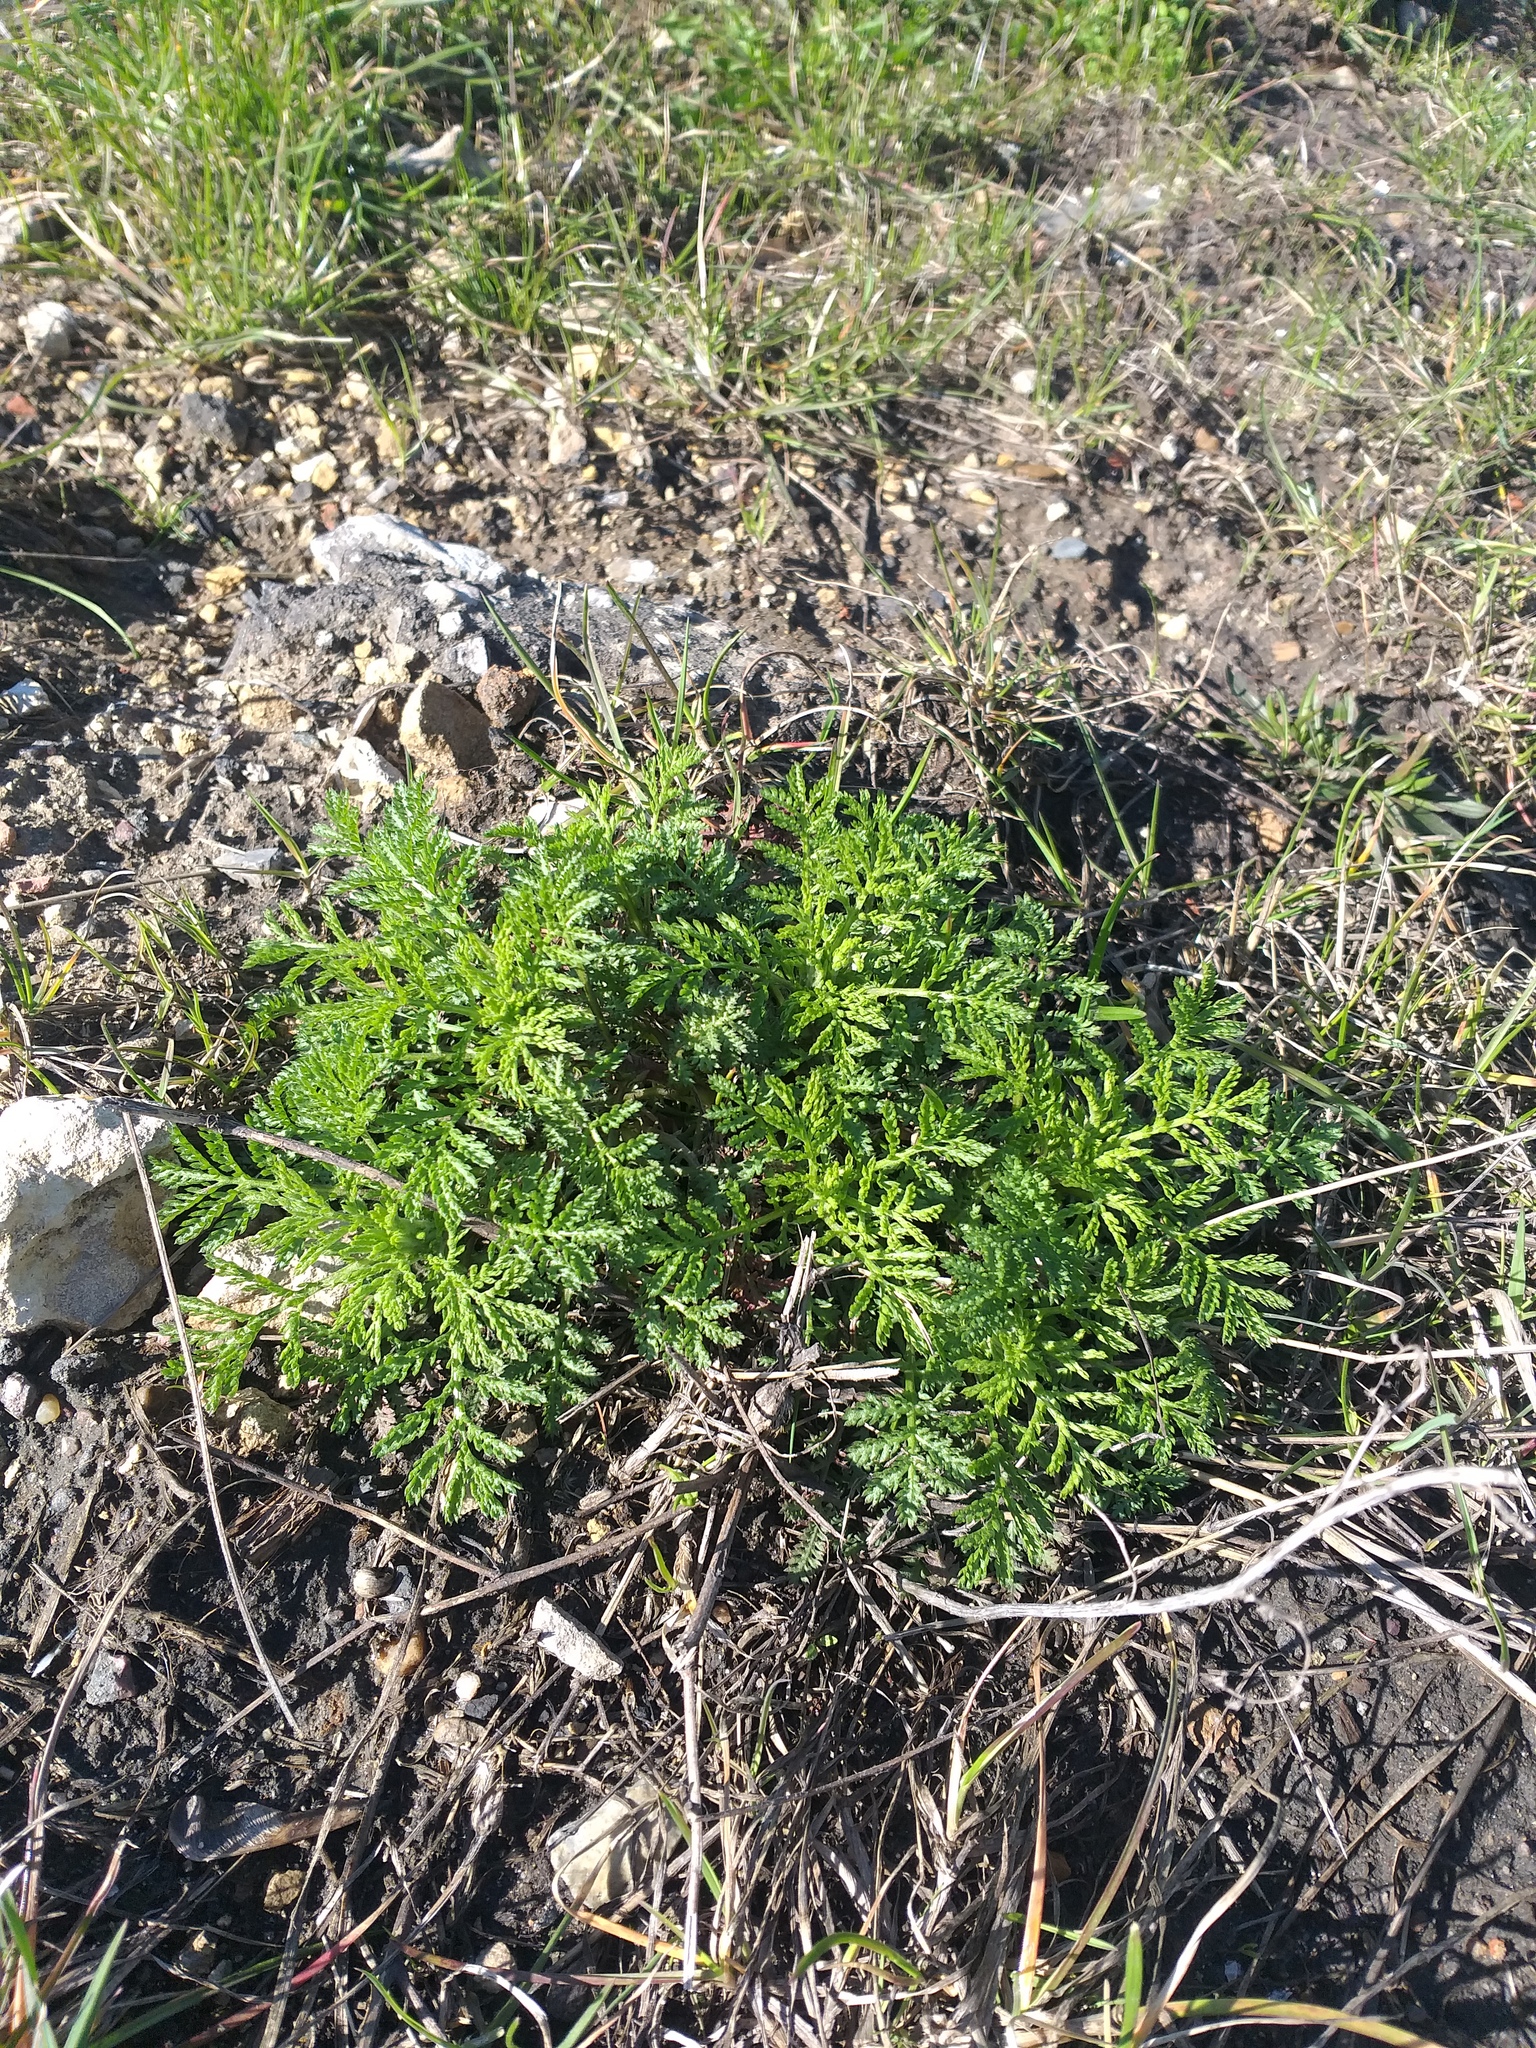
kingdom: Plantae
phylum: Tracheophyta
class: Magnoliopsida
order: Asterales
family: Asteraceae
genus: Cota
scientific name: Cota tinctoria
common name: Golden chamomile
